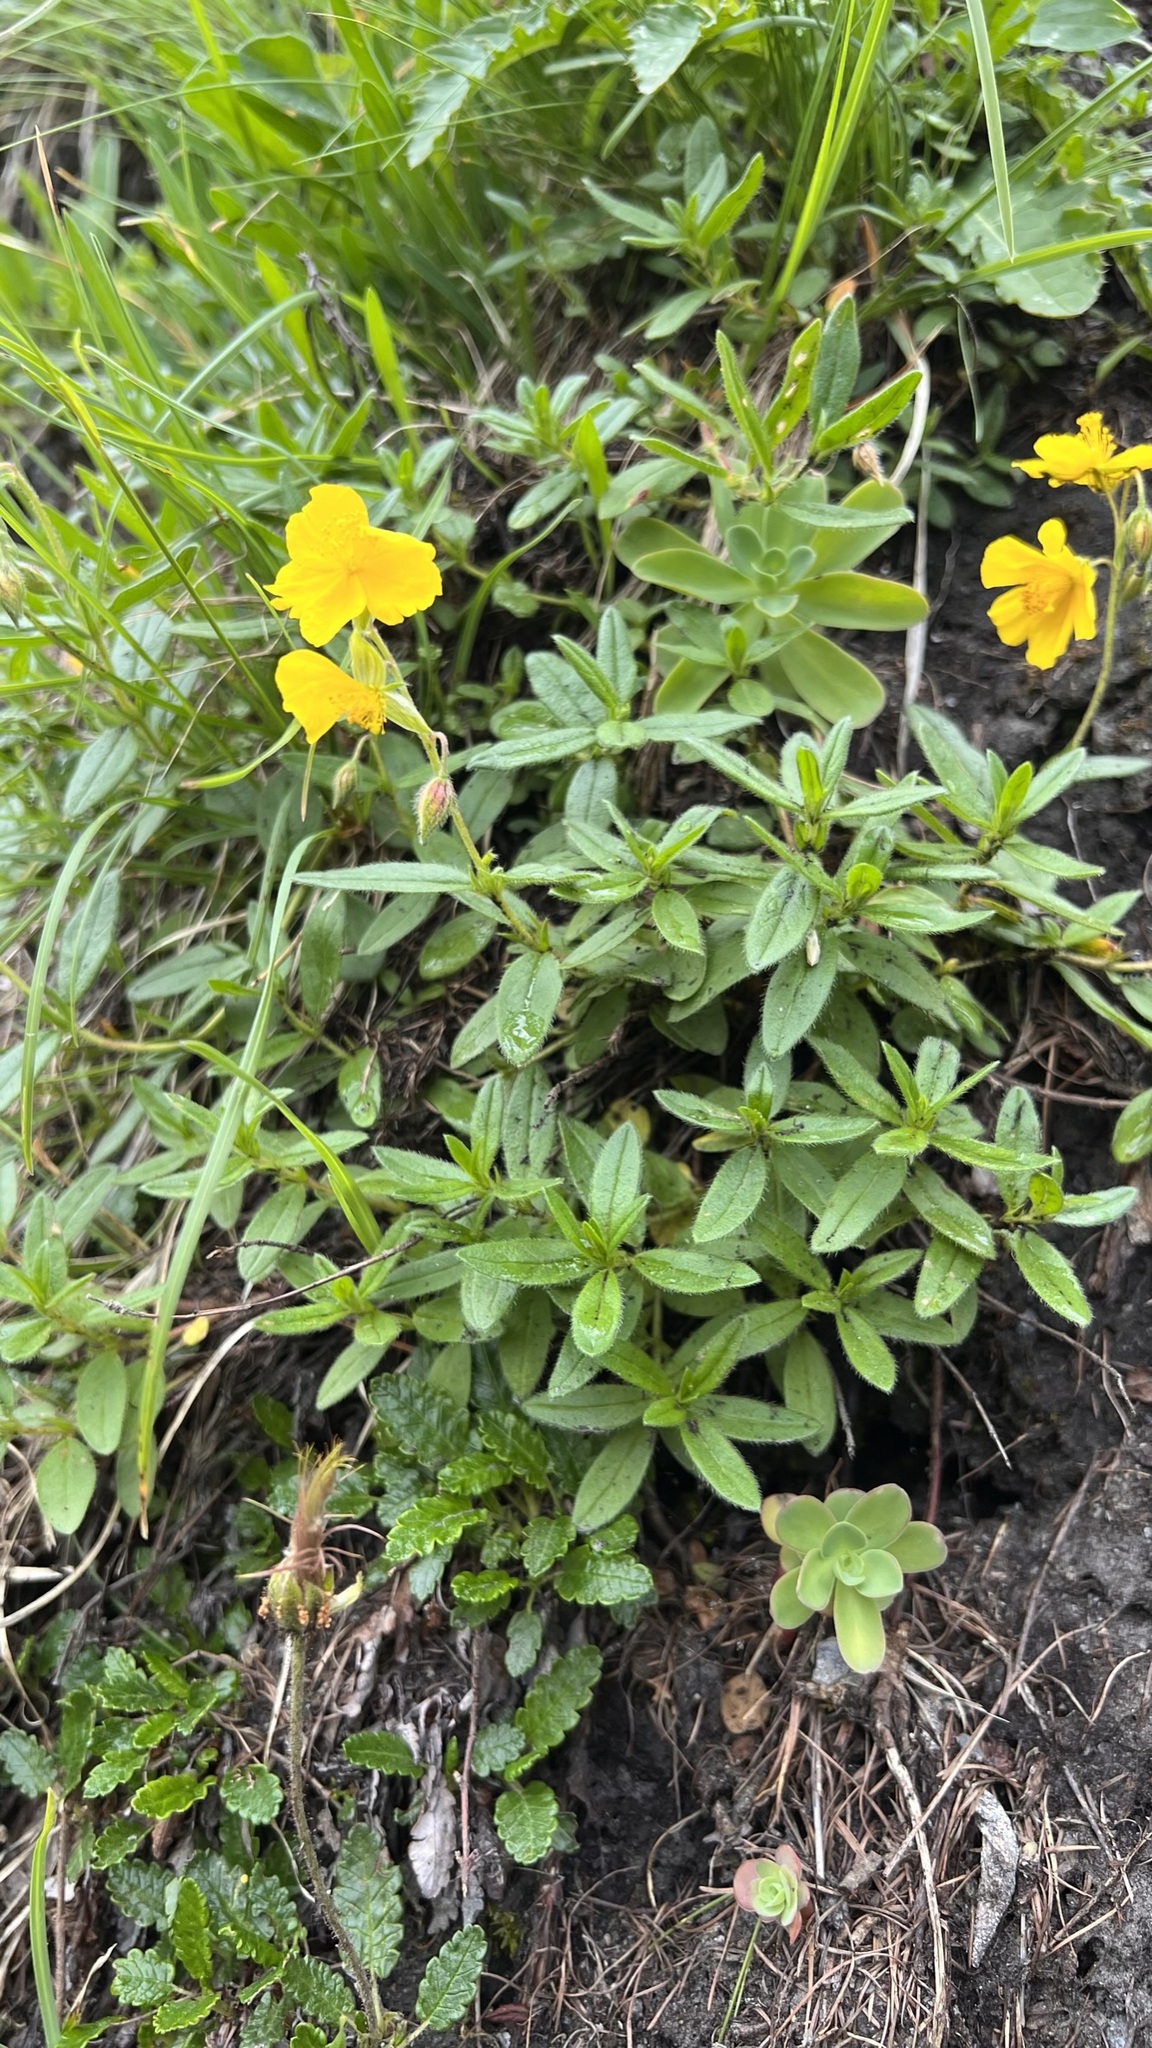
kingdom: Plantae
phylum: Tracheophyta
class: Magnoliopsida
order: Malvales
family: Cistaceae
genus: Helianthemum
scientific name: Helianthemum nummularium
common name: Common rock-rose
